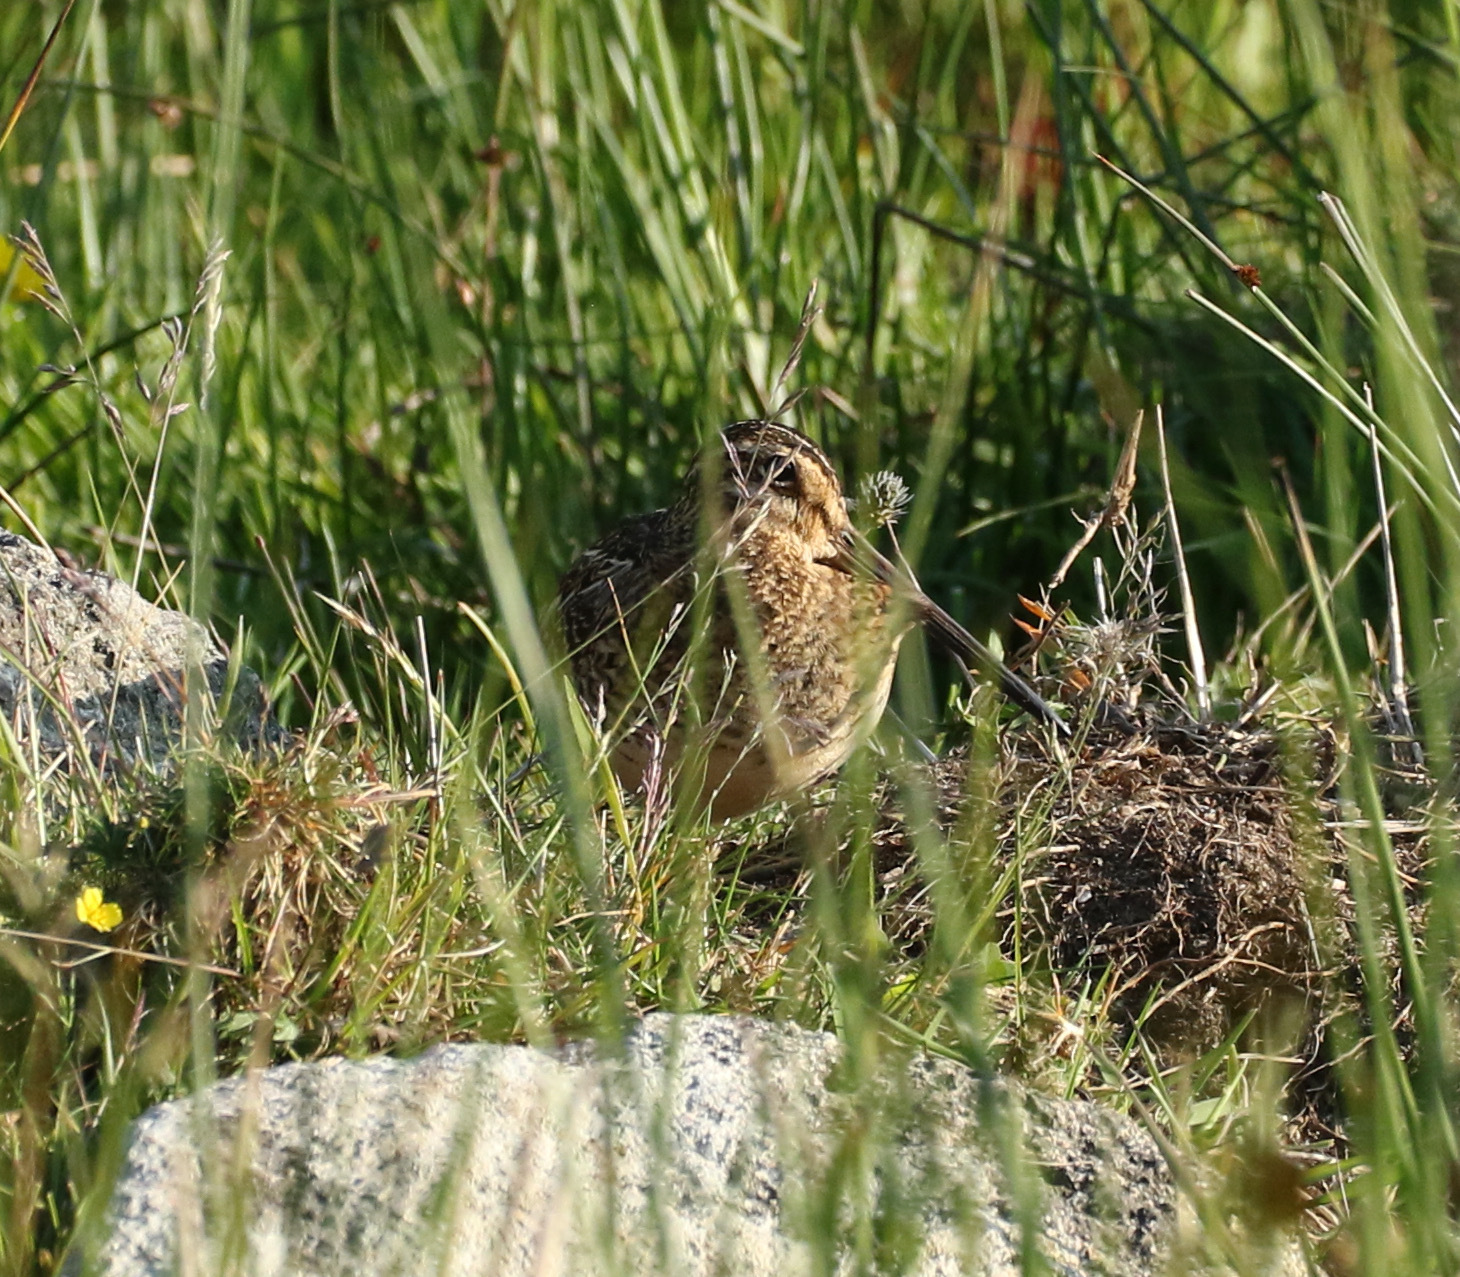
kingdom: Animalia
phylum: Chordata
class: Aves
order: Charadriiformes
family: Scolopacidae
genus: Gallinago
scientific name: Gallinago gallinago
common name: Common snipe
